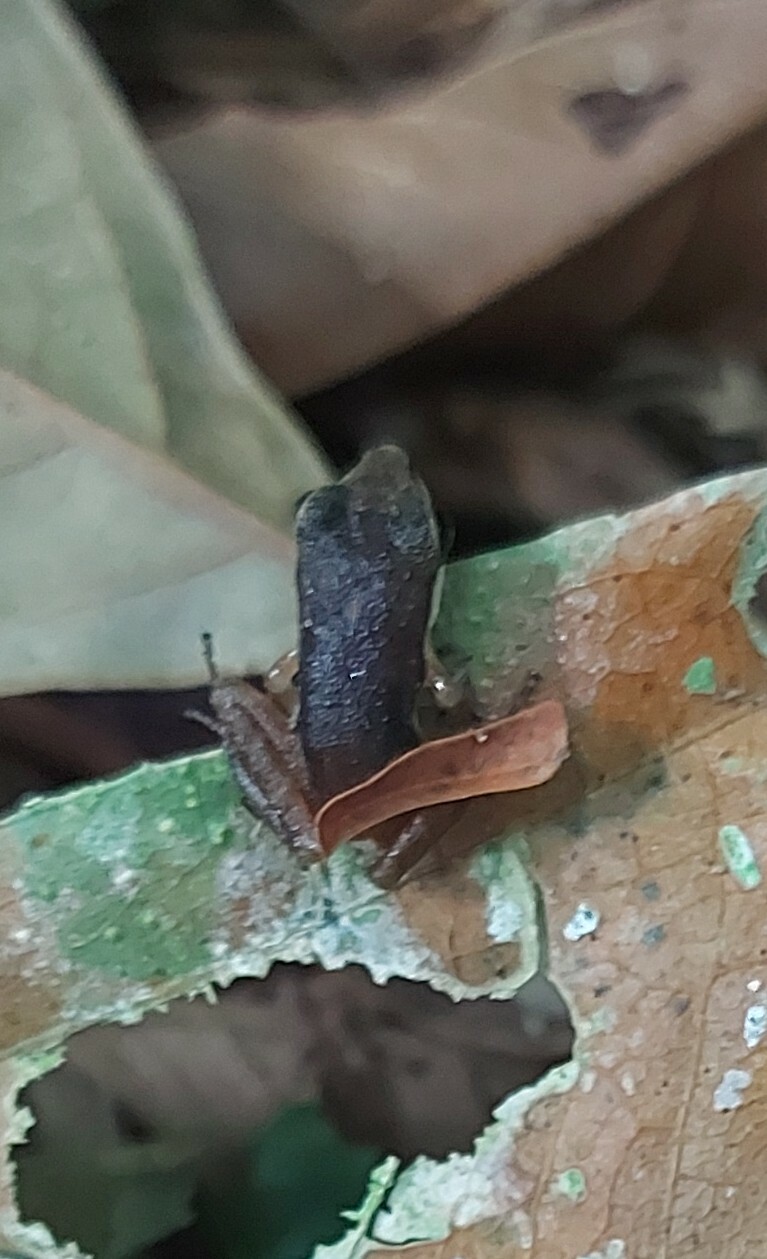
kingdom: Animalia
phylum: Chordata
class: Amphibia
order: Anura
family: Ranidae
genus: Lithobates
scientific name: Lithobates warszewitschii
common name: Warszewitsch's frog
